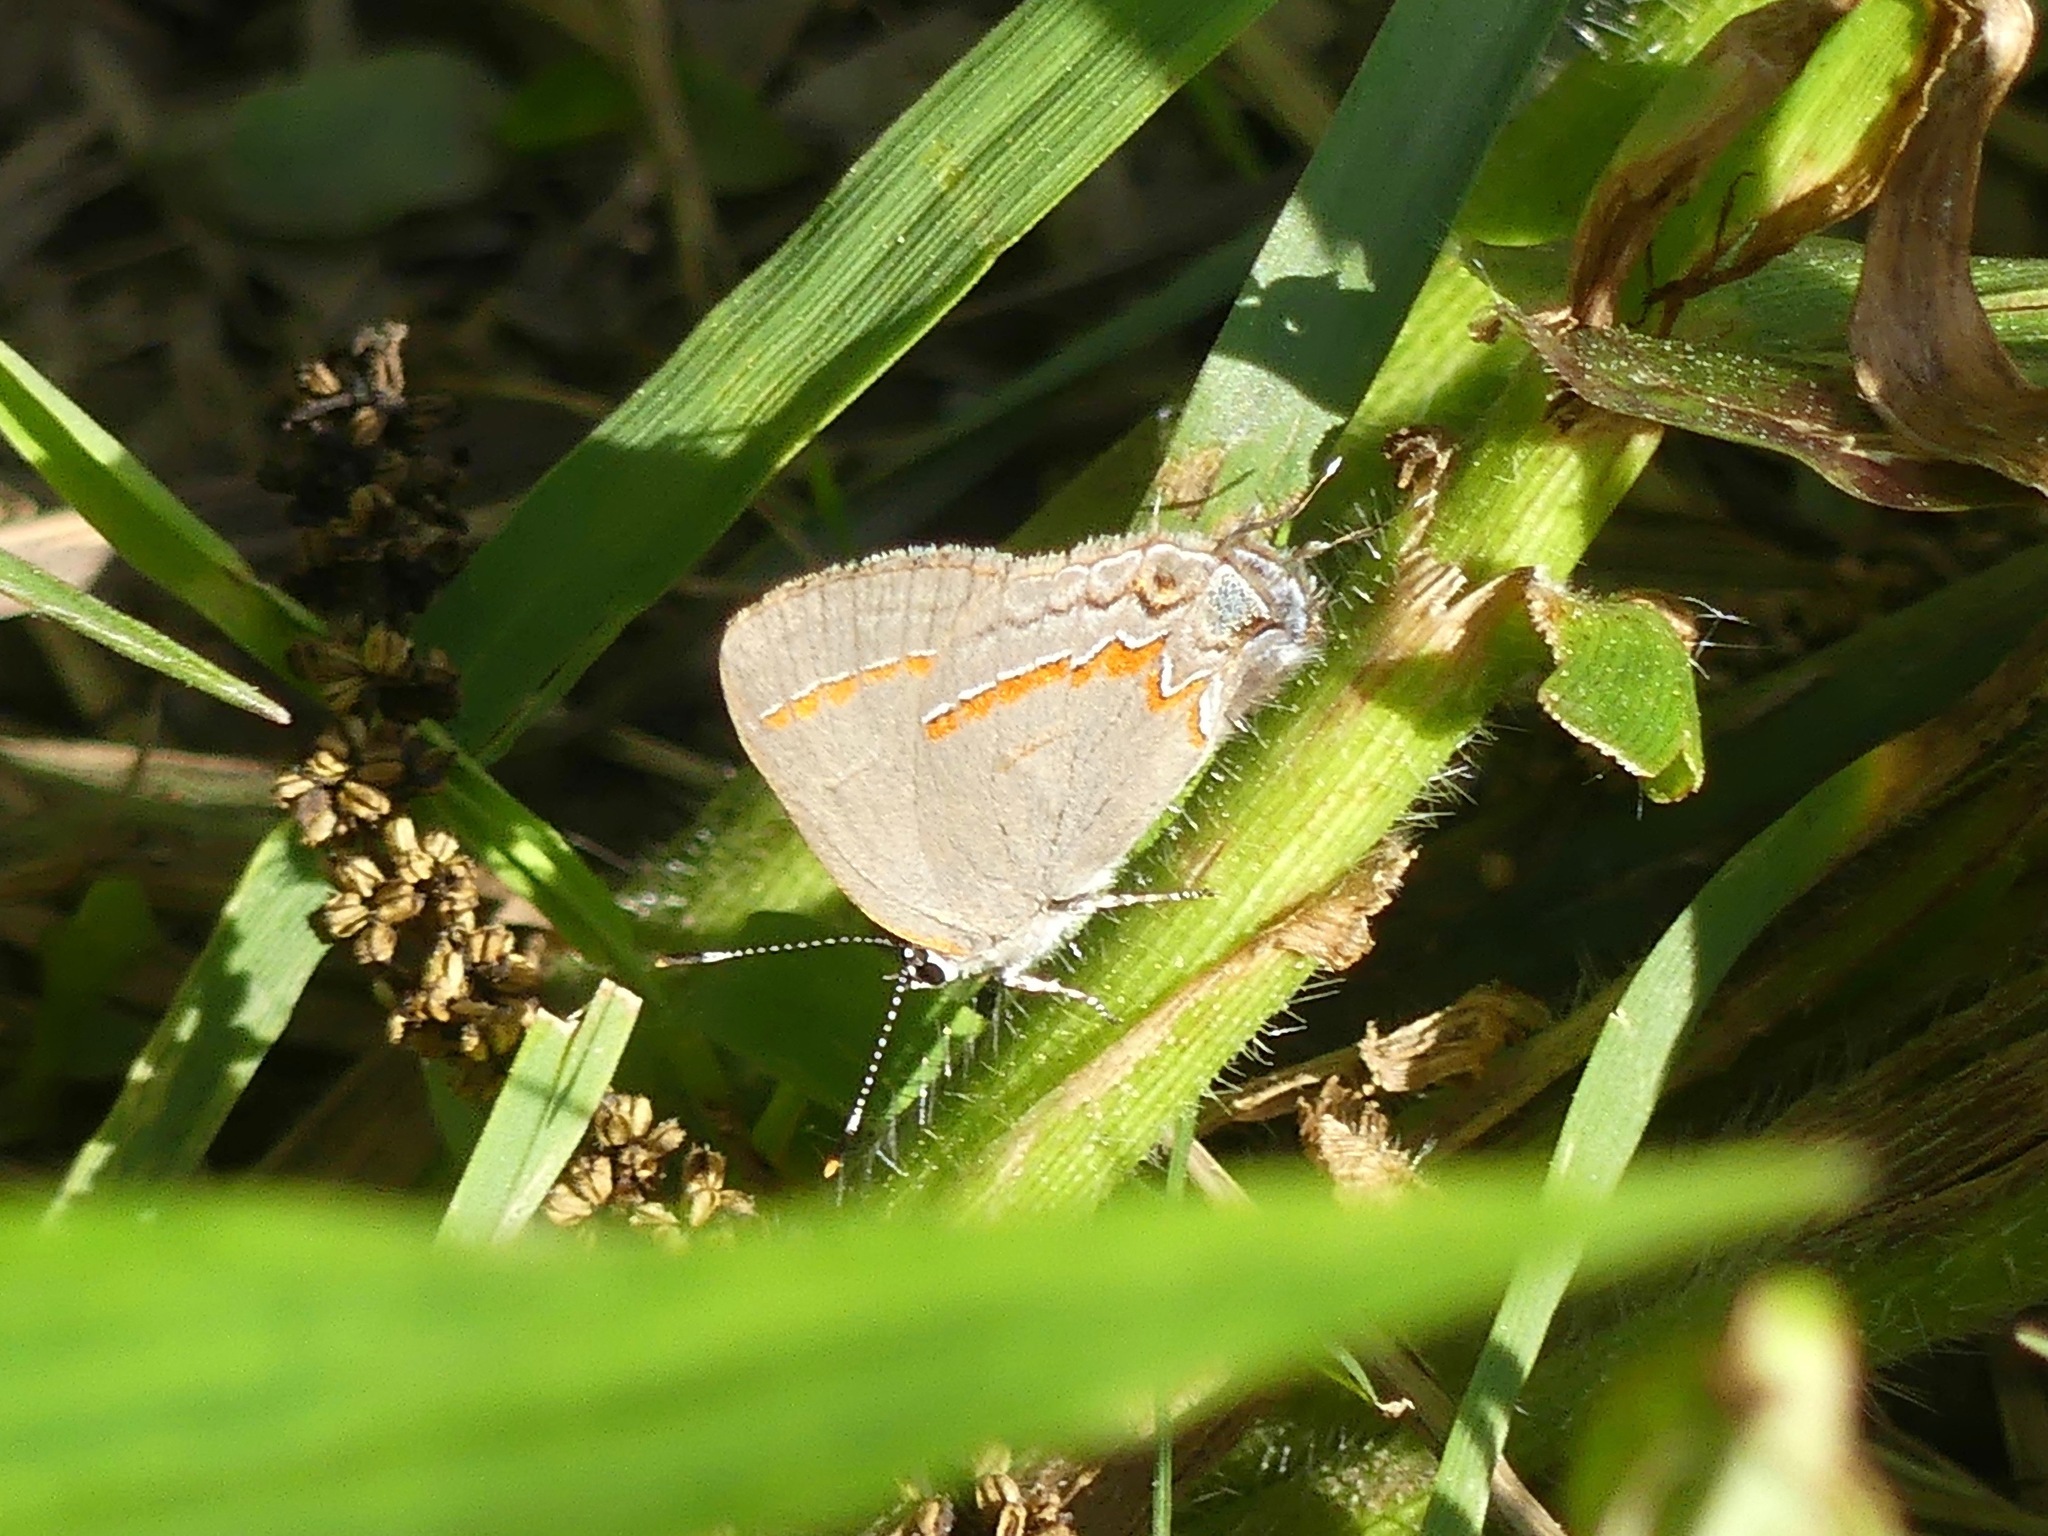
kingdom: Animalia
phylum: Arthropoda
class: Insecta
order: Lepidoptera
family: Lycaenidae
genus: Calycopis
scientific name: Calycopis cecrops
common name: Red-banded hairstreak
